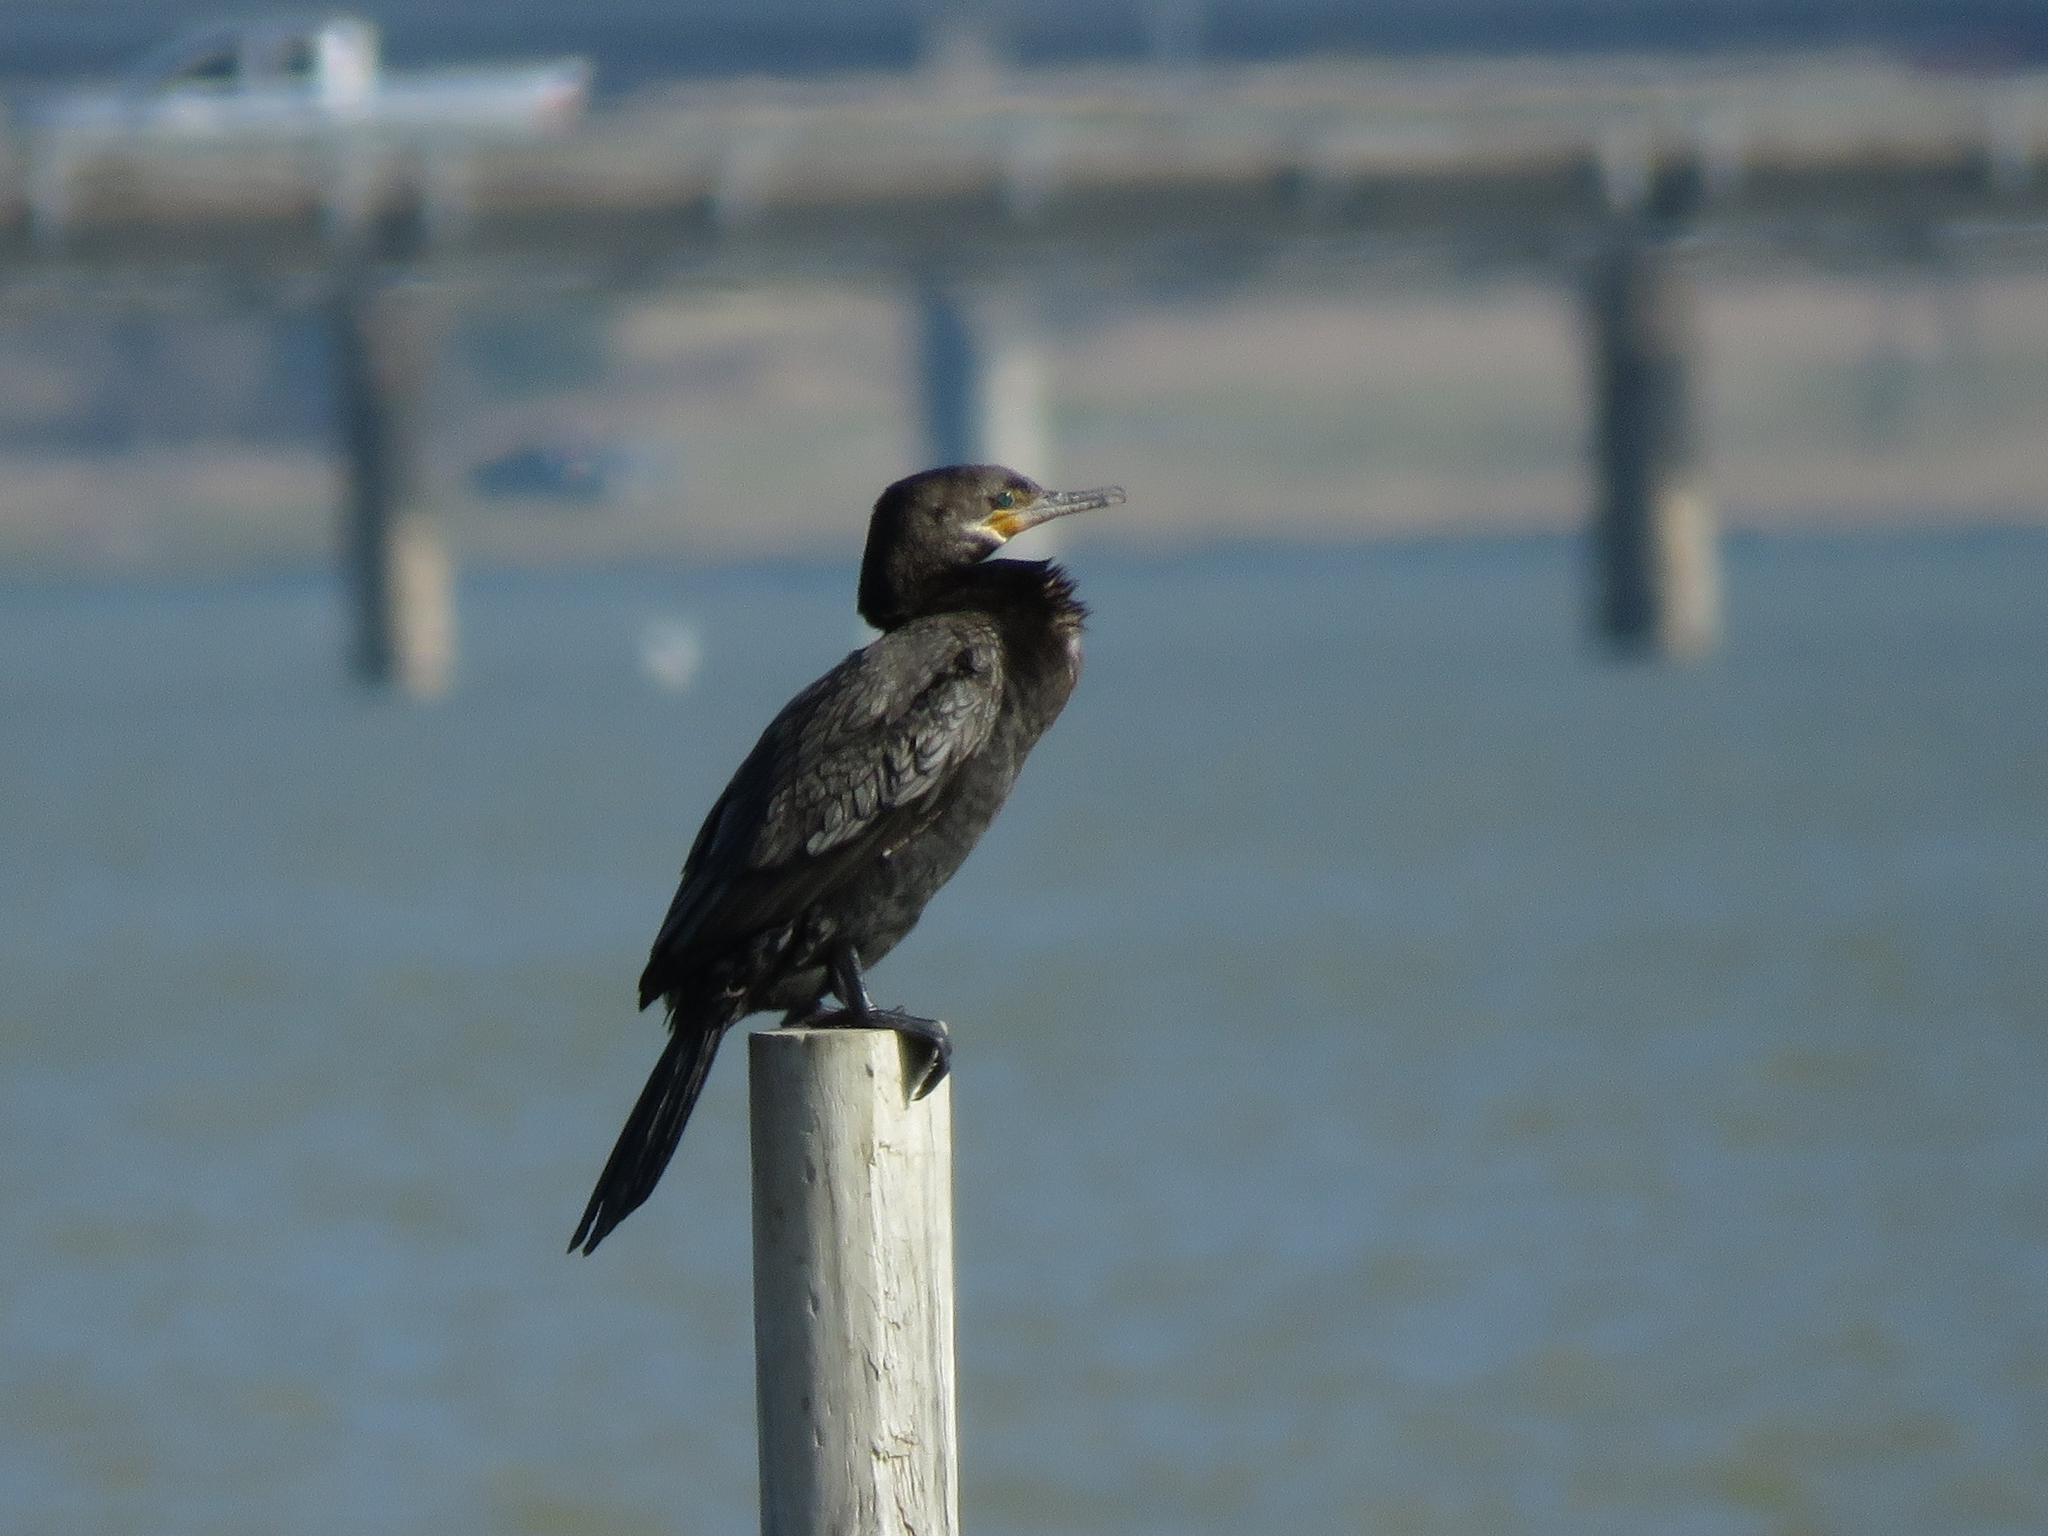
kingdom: Animalia
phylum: Chordata
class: Aves
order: Suliformes
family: Phalacrocoracidae
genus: Phalacrocorax
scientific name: Phalacrocorax brasilianus
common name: Neotropic cormorant
